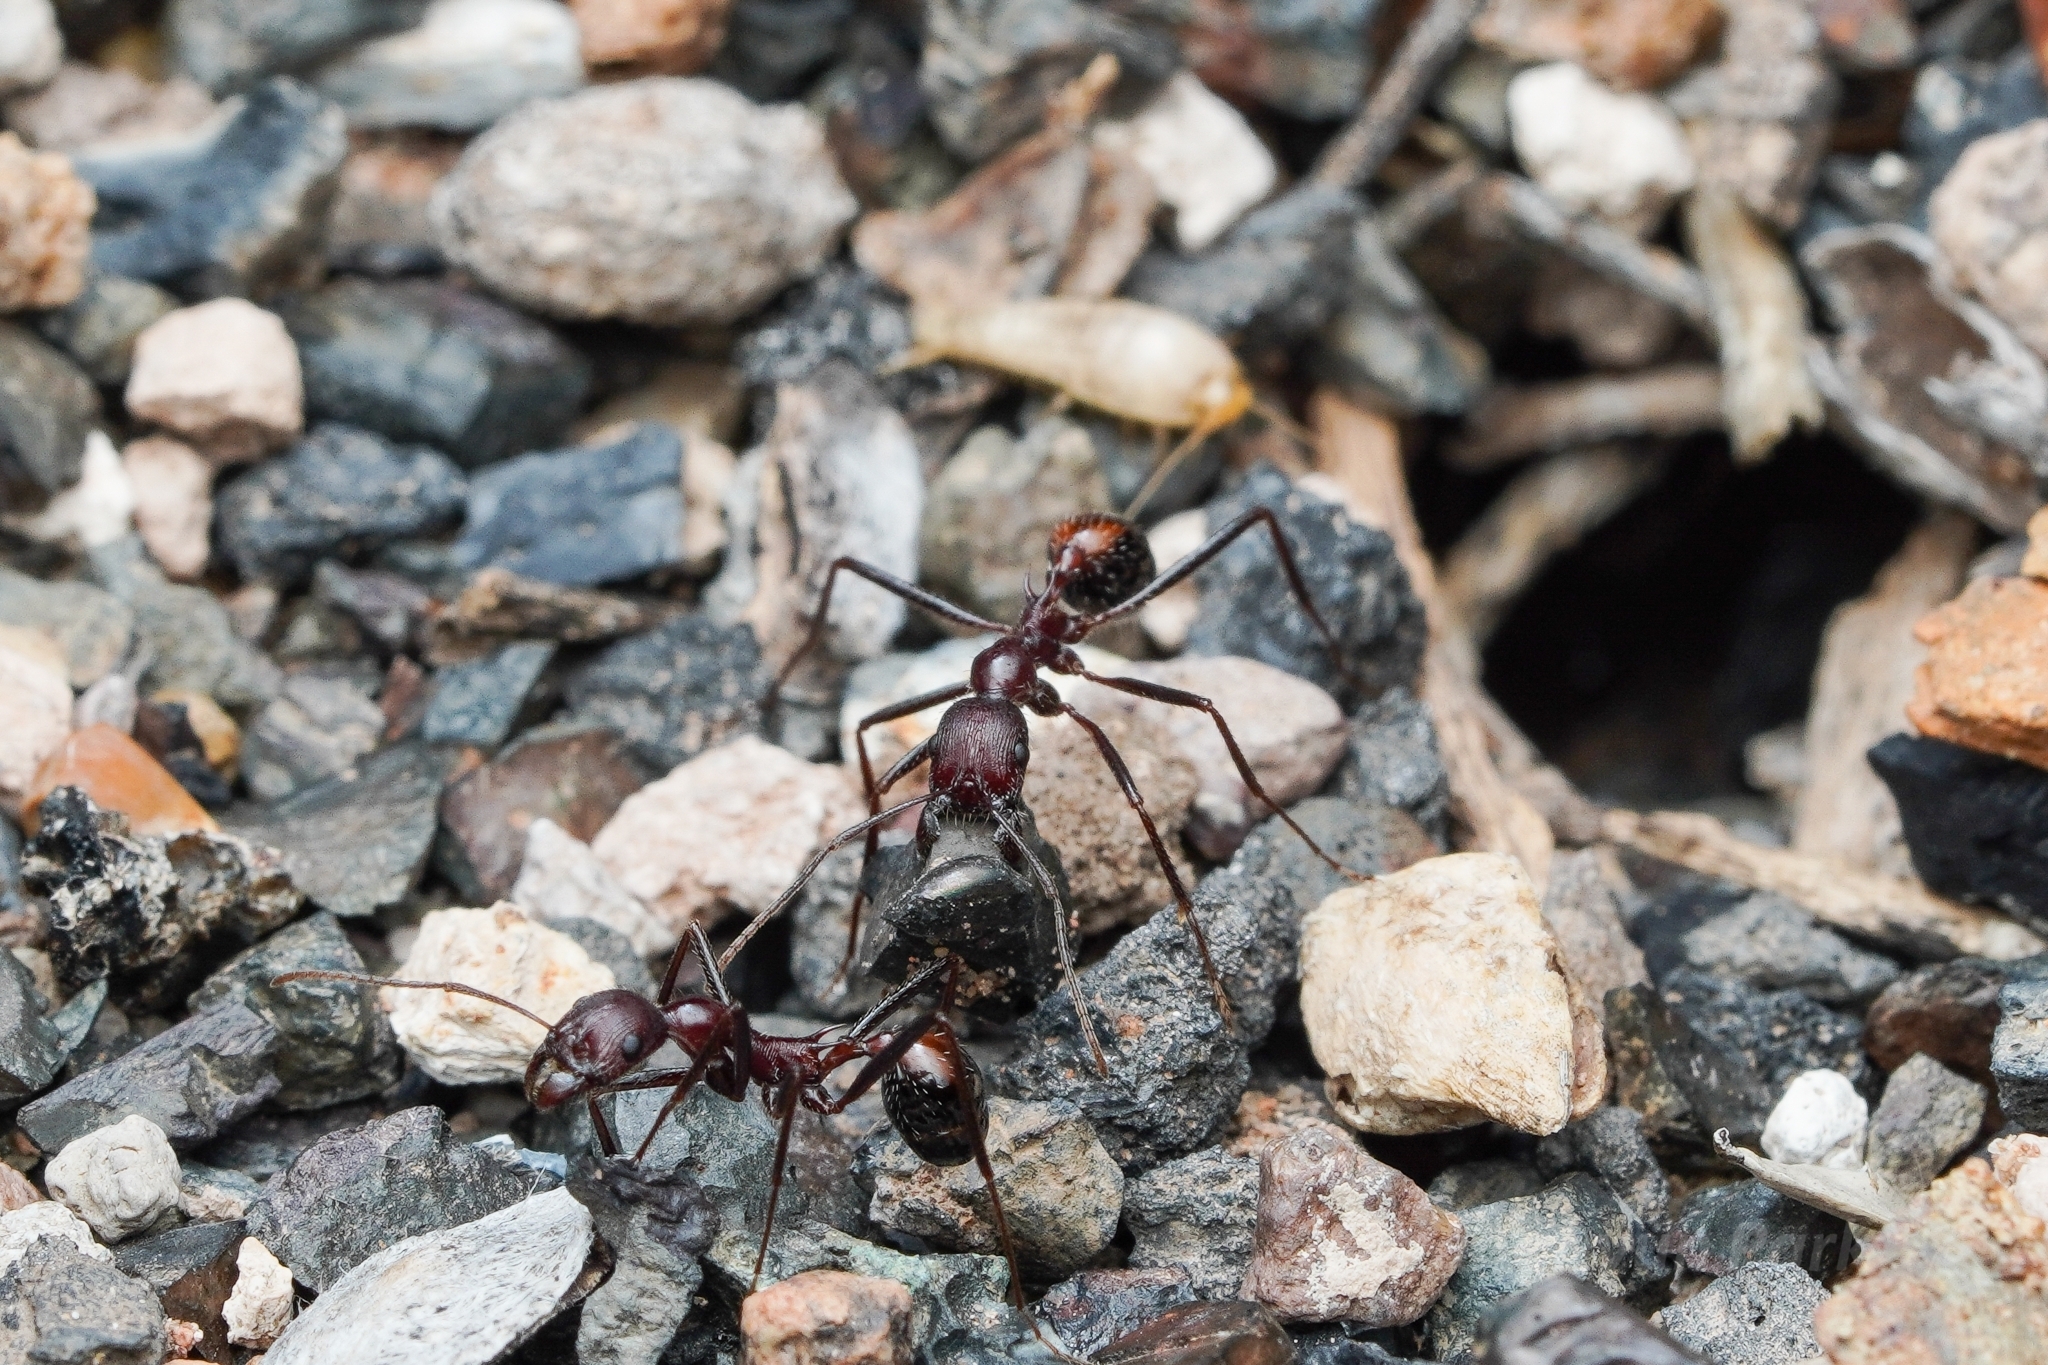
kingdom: Animalia
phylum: Arthropoda
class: Insecta
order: Hymenoptera
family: Formicidae
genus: Novomessor
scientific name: Novomessor cockerelli
